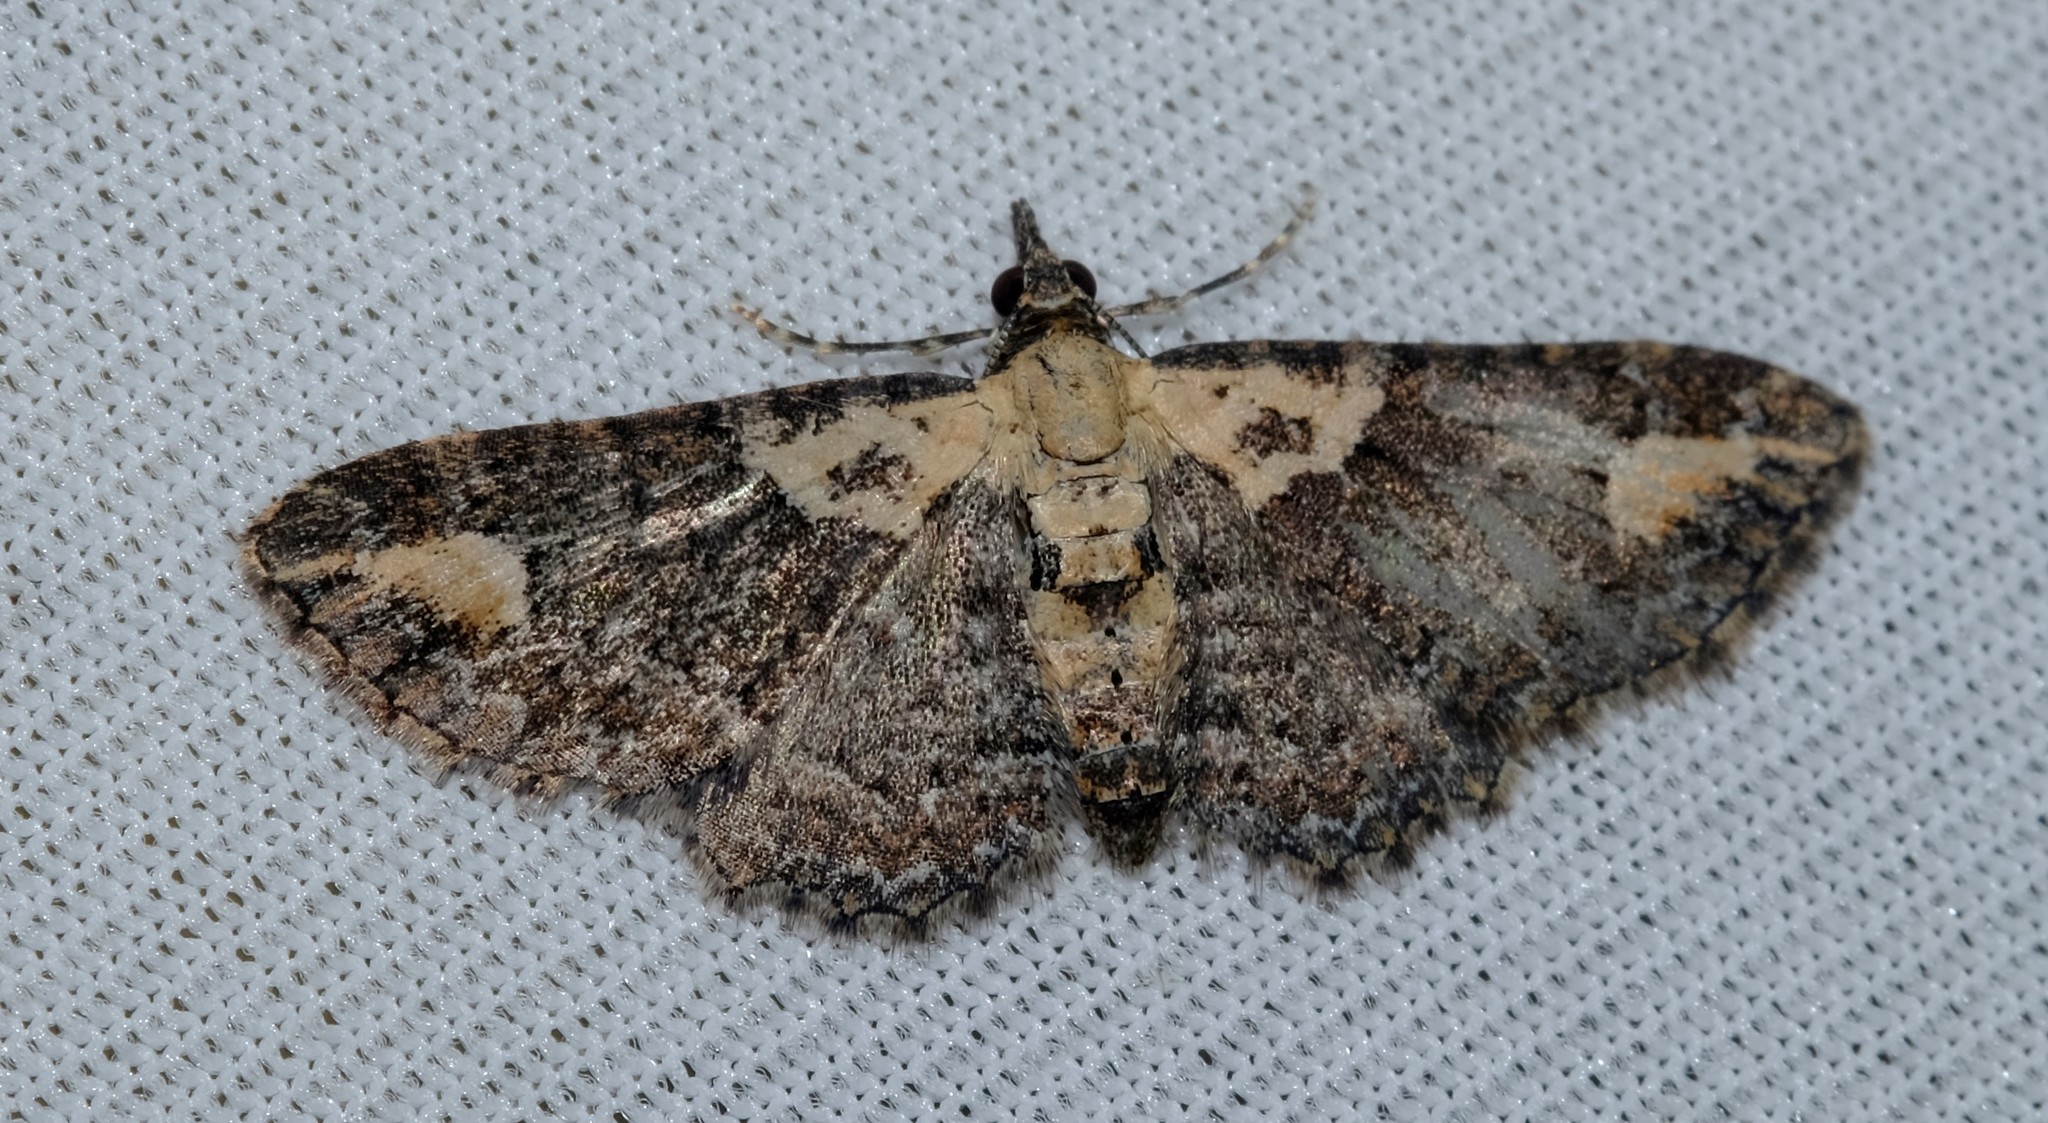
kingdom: Animalia
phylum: Arthropoda
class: Insecta
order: Lepidoptera
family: Geometridae
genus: Pasiphilodes
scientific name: Pasiphilodes testulata
